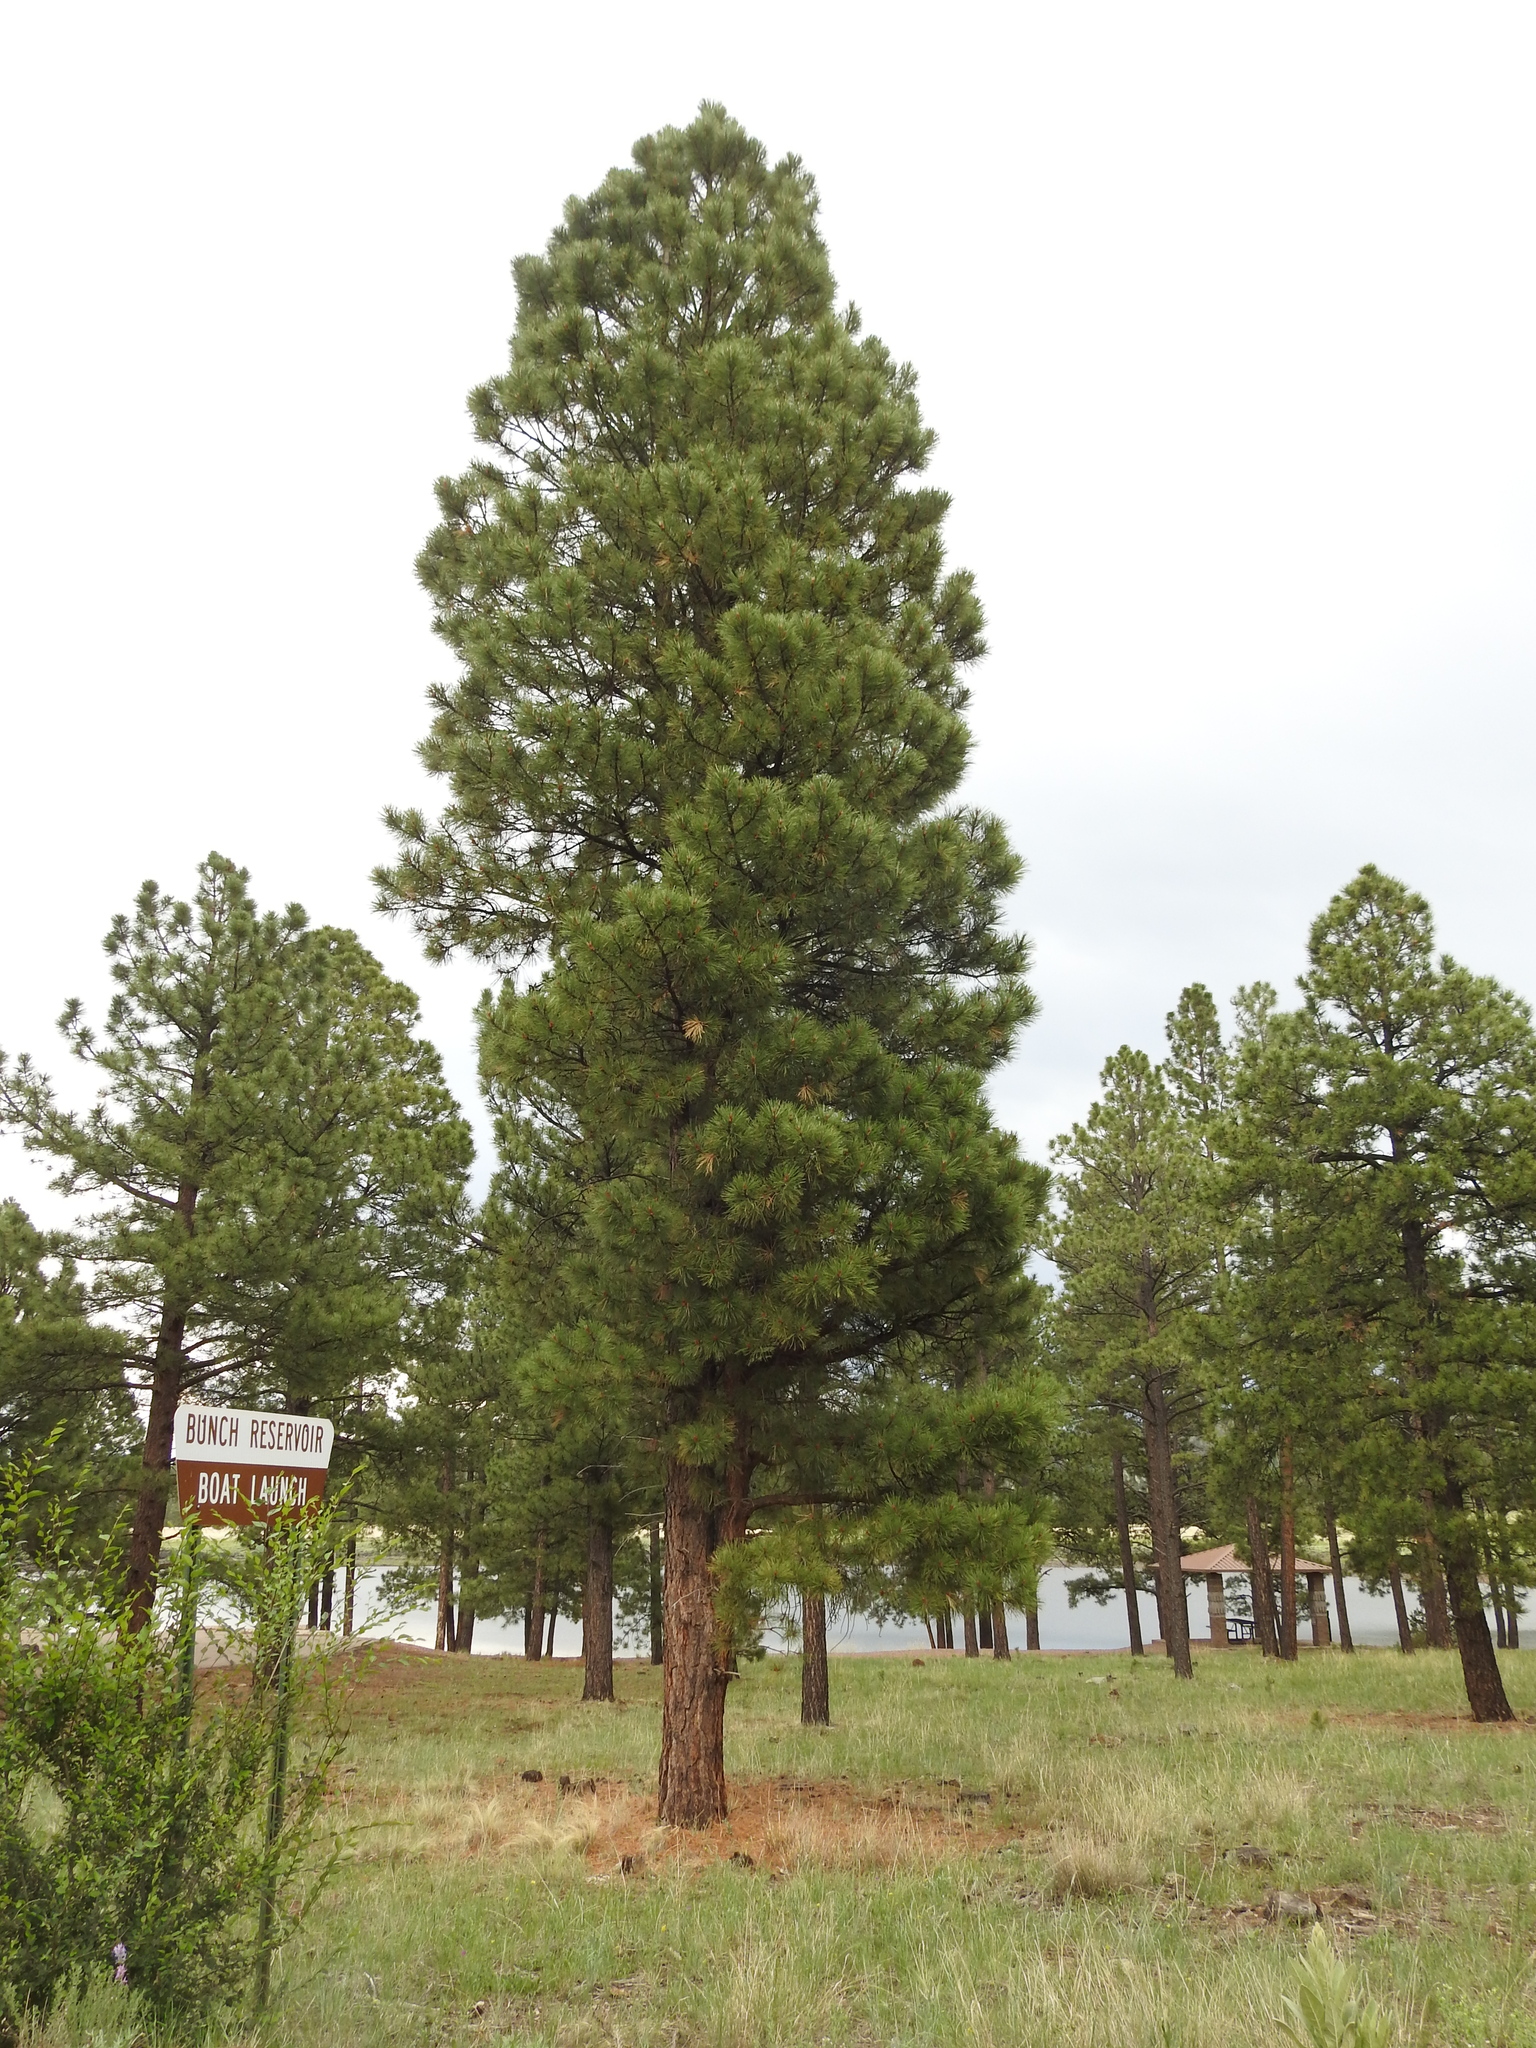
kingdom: Plantae
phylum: Tracheophyta
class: Pinopsida
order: Pinales
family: Pinaceae
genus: Pinus
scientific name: Pinus ponderosa
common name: Western yellow-pine
